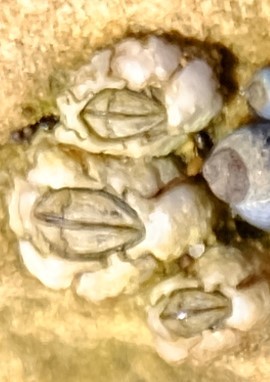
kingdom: Animalia
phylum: Arthropoda
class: Maxillopoda
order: Sessilia
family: Chthamalidae
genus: Chthamalus
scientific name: Chthamalus antennatus
